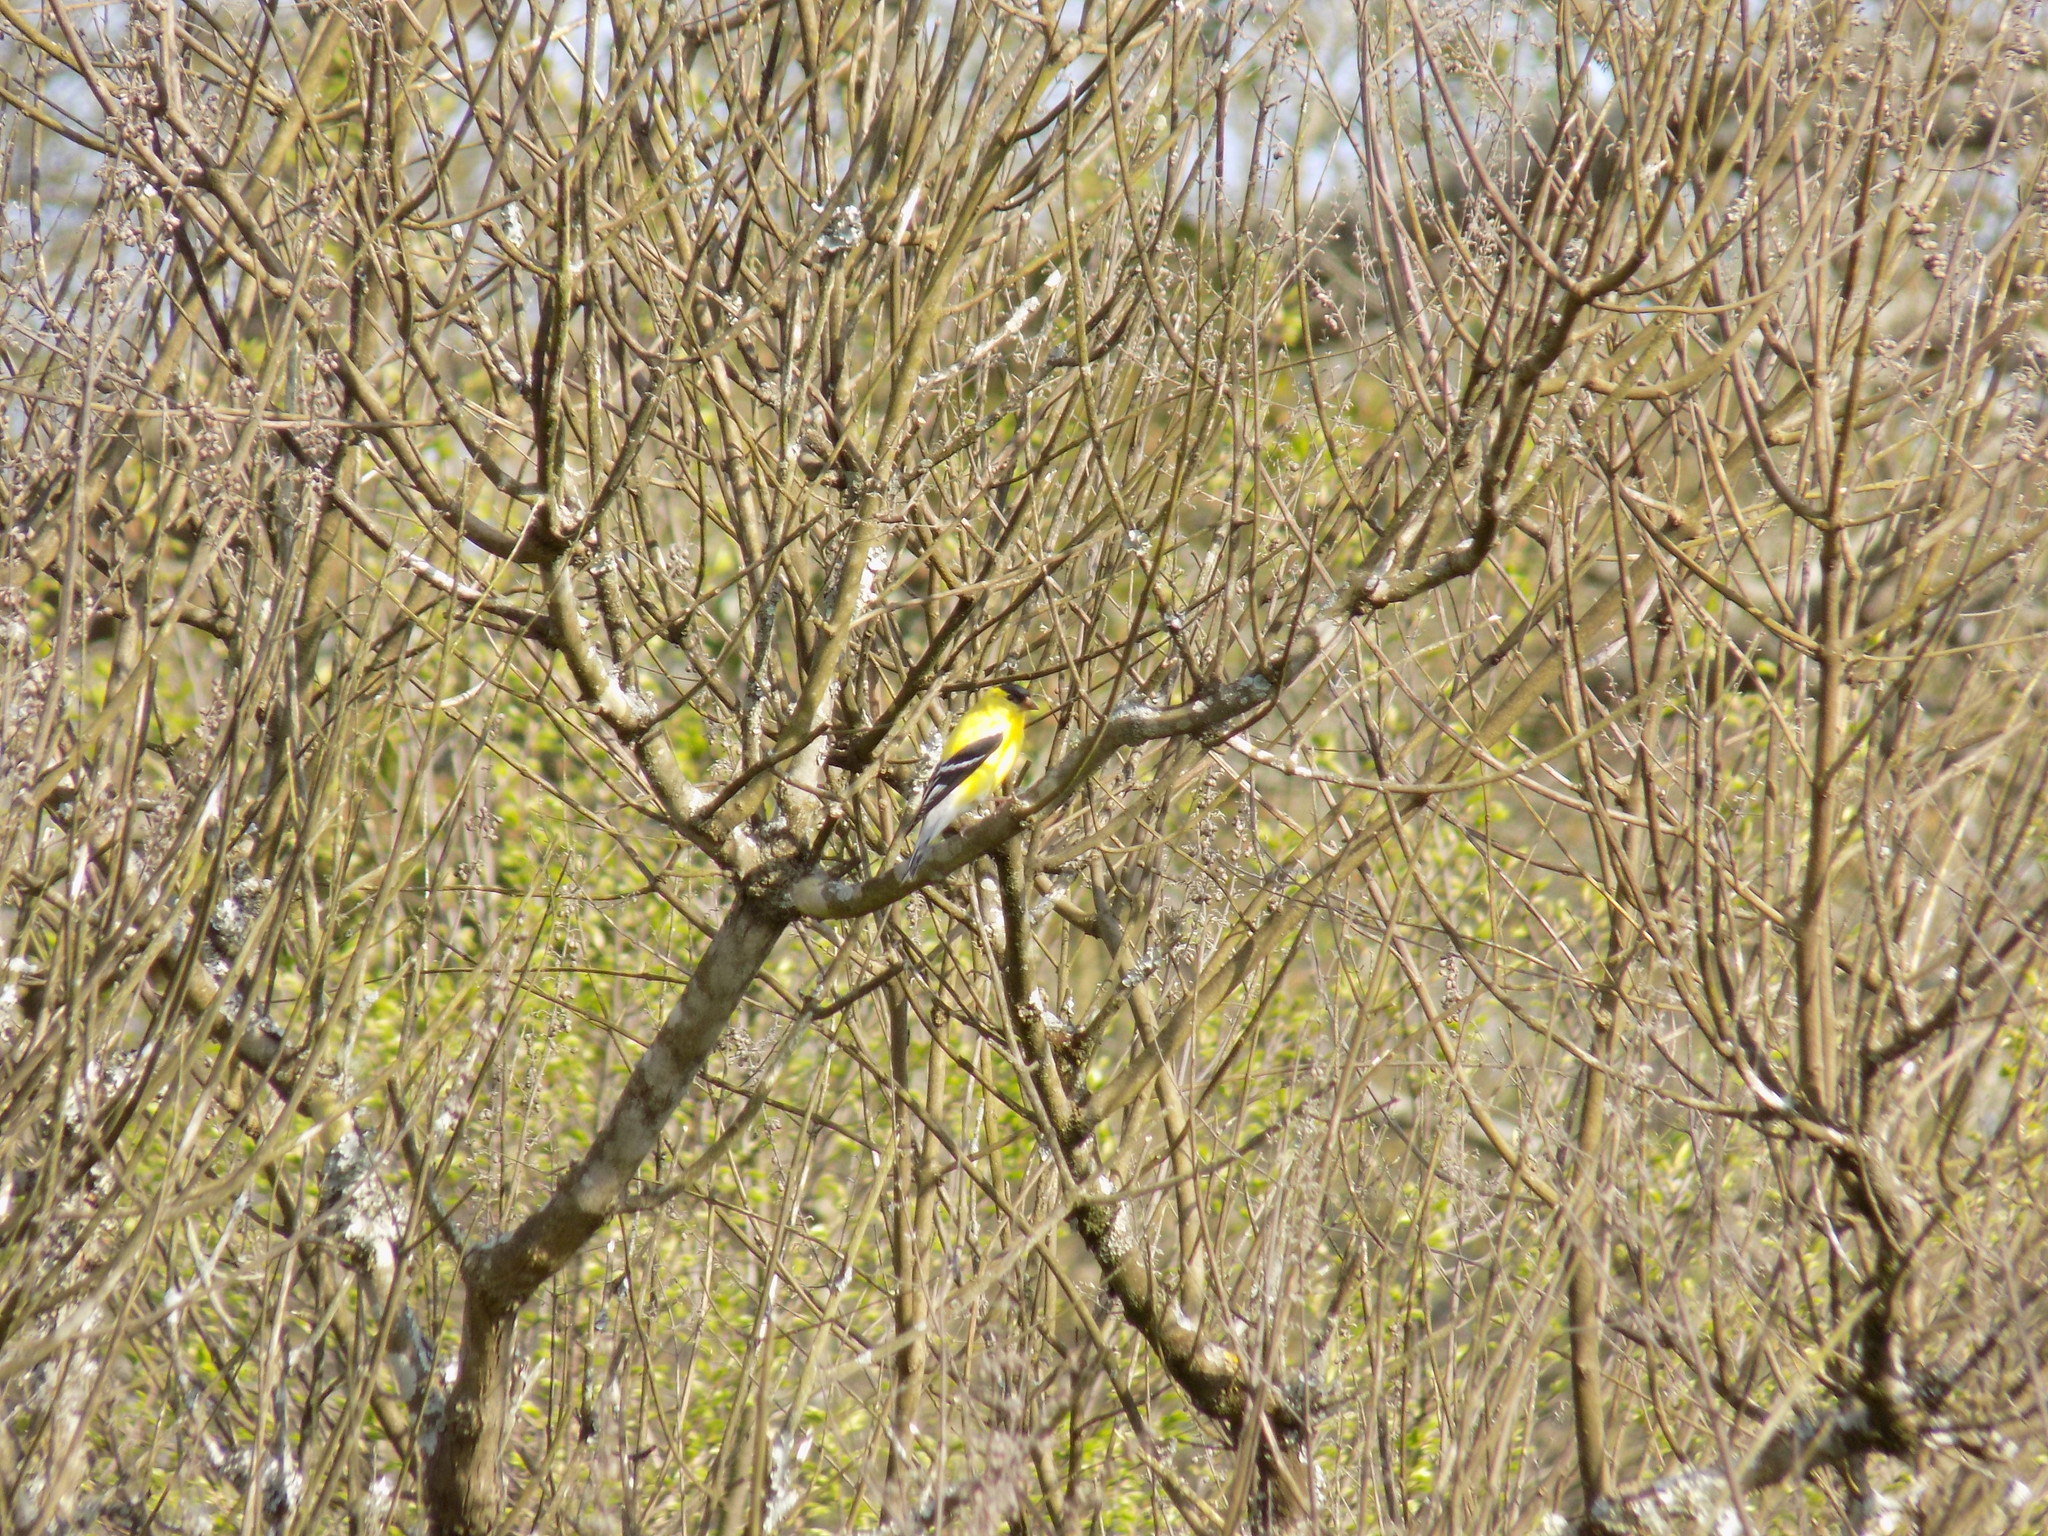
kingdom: Animalia
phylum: Chordata
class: Aves
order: Passeriformes
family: Fringillidae
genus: Spinus
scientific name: Spinus tristis
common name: American goldfinch
